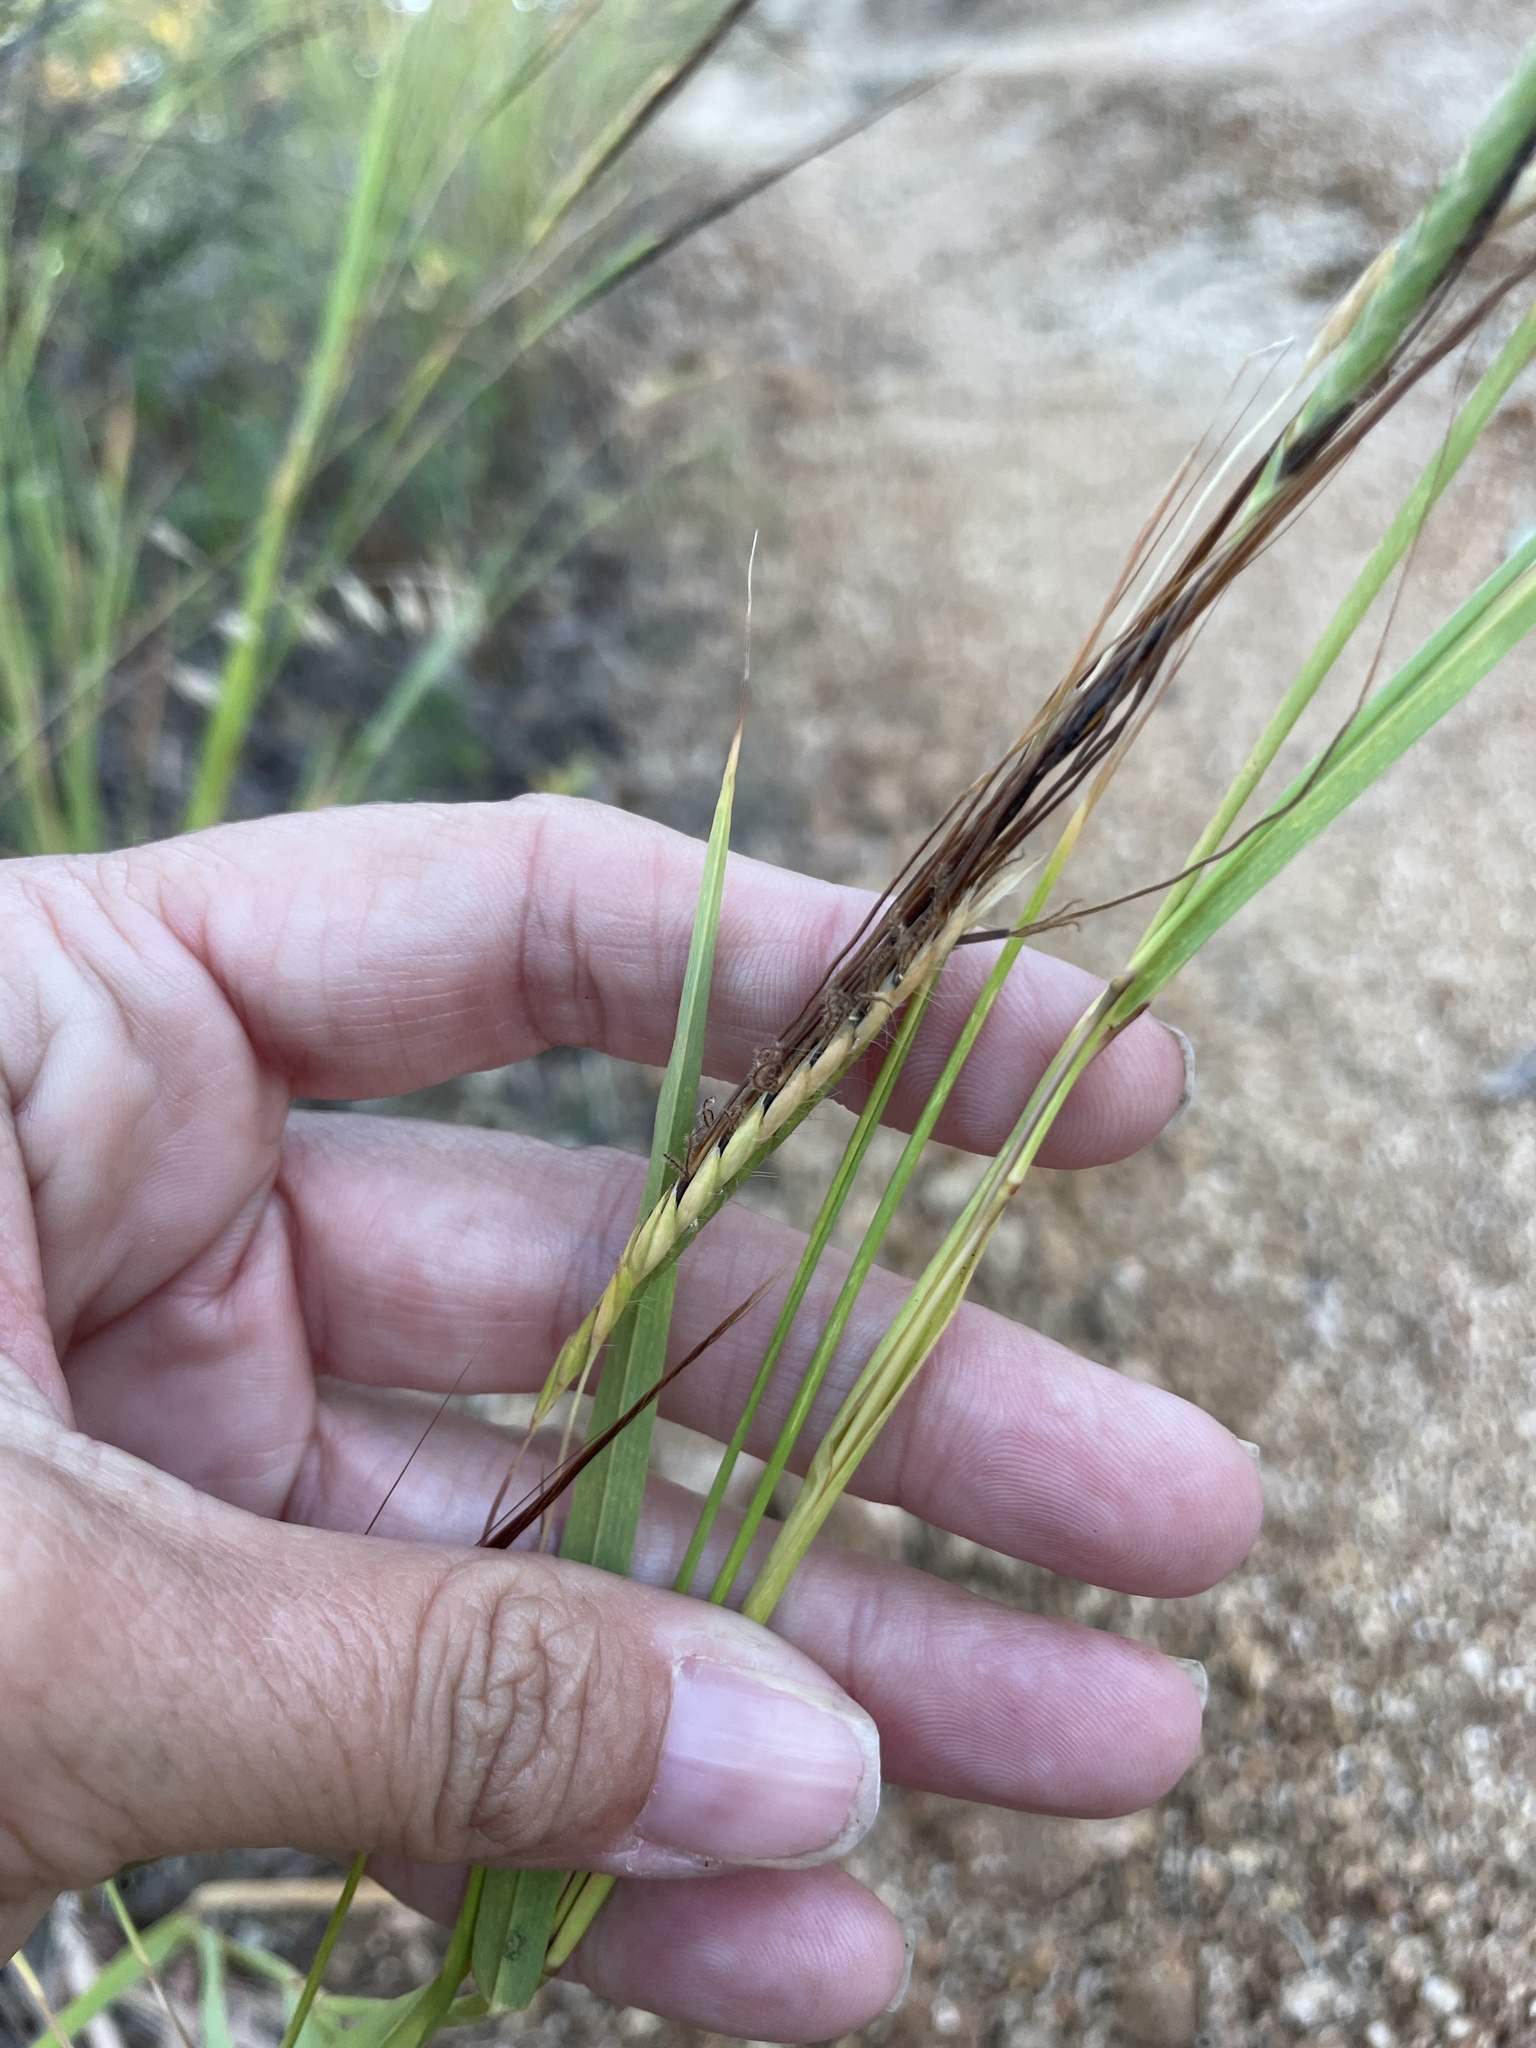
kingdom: Plantae
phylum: Tracheophyta
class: Liliopsida
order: Poales
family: Poaceae
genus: Heteropogon
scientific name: Heteropogon contortus
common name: Tanglehead
